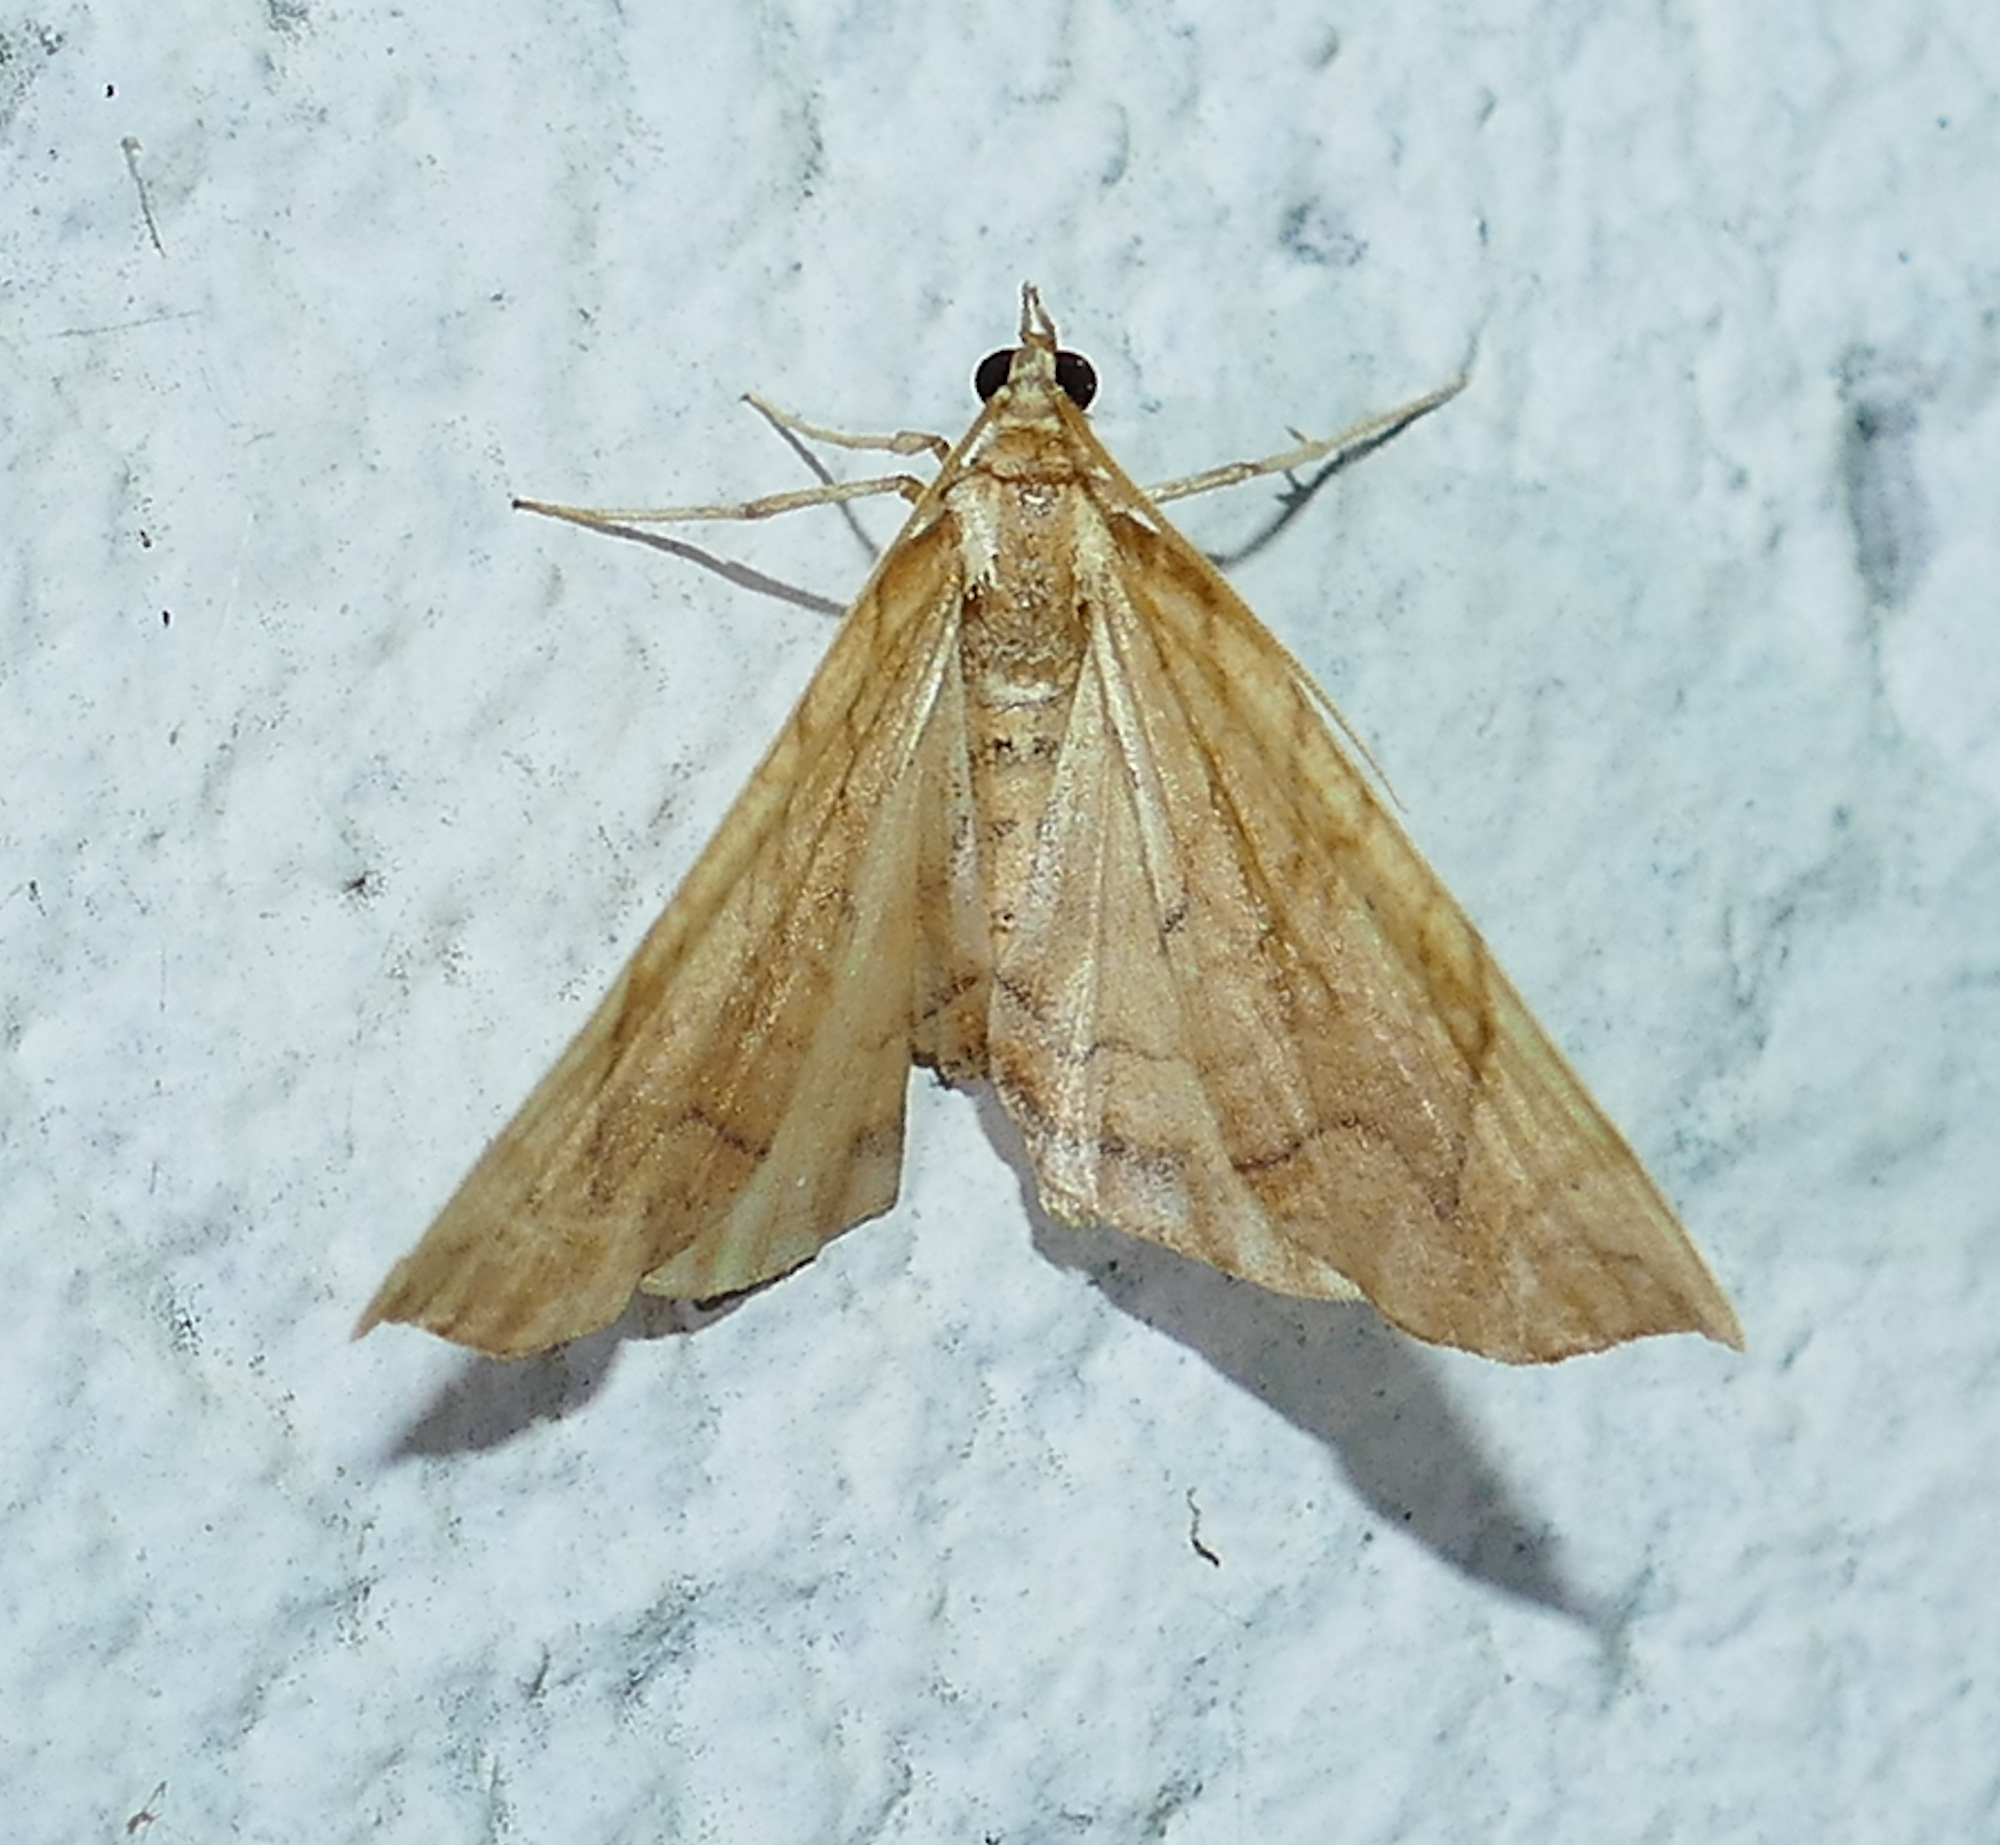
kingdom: Animalia
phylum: Arthropoda
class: Insecta
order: Lepidoptera
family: Geometridae
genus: Eulithis
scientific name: Eulithis
